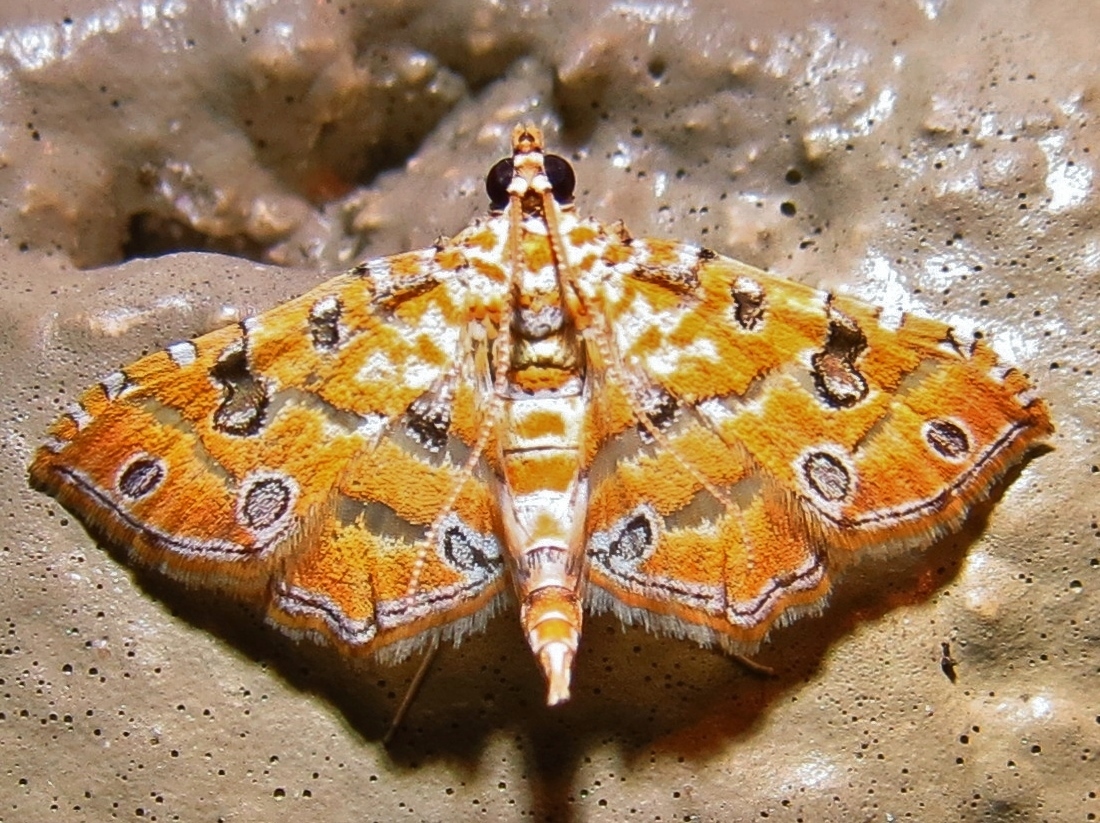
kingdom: Animalia
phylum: Arthropoda
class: Insecta
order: Lepidoptera
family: Crambidae
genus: Ommatospila
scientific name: Ommatospila narcaeusalis
